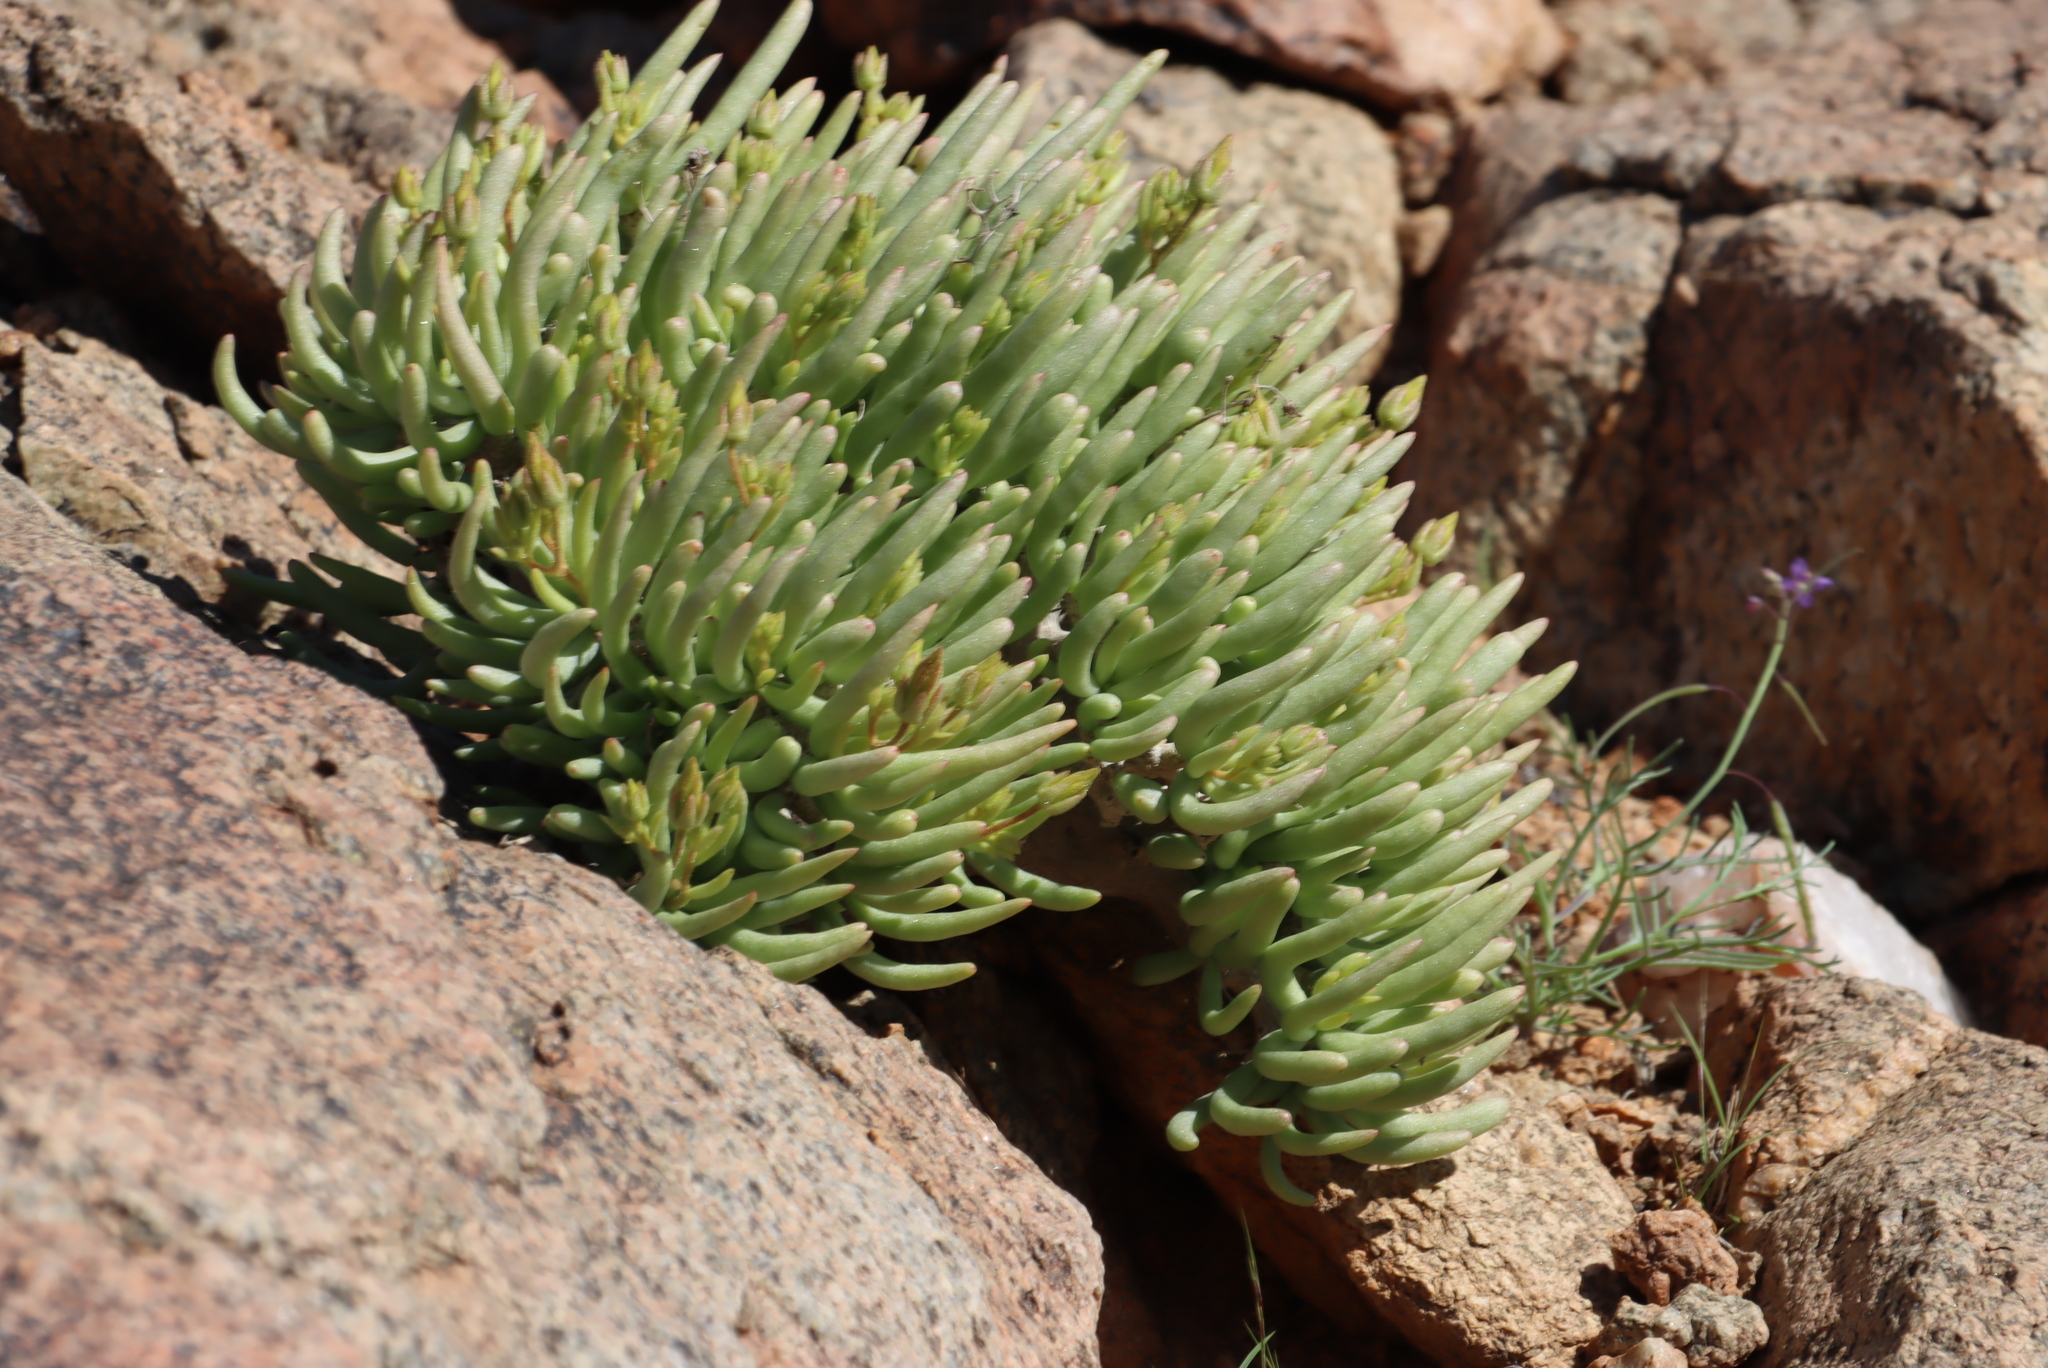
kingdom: Plantae
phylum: Tracheophyta
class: Magnoliopsida
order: Saxifragales
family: Crassulaceae
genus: Tylecodon
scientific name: Tylecodon hallii
